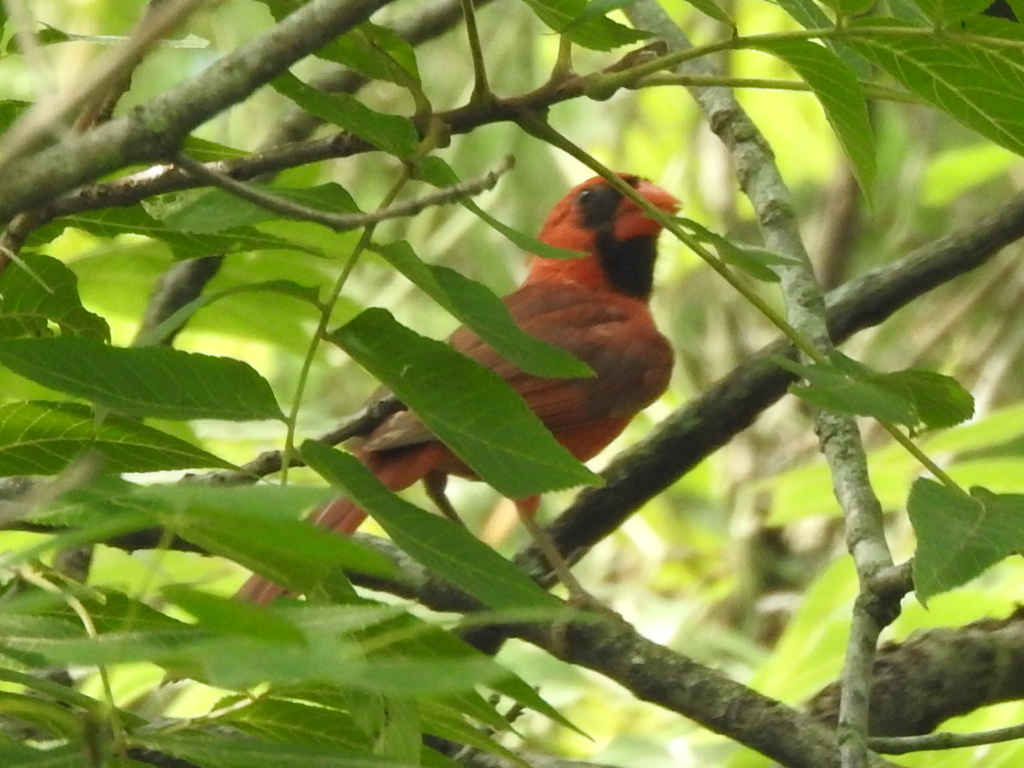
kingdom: Animalia
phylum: Chordata
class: Aves
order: Passeriformes
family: Cardinalidae
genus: Cardinalis
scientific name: Cardinalis cardinalis
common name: Northern cardinal
